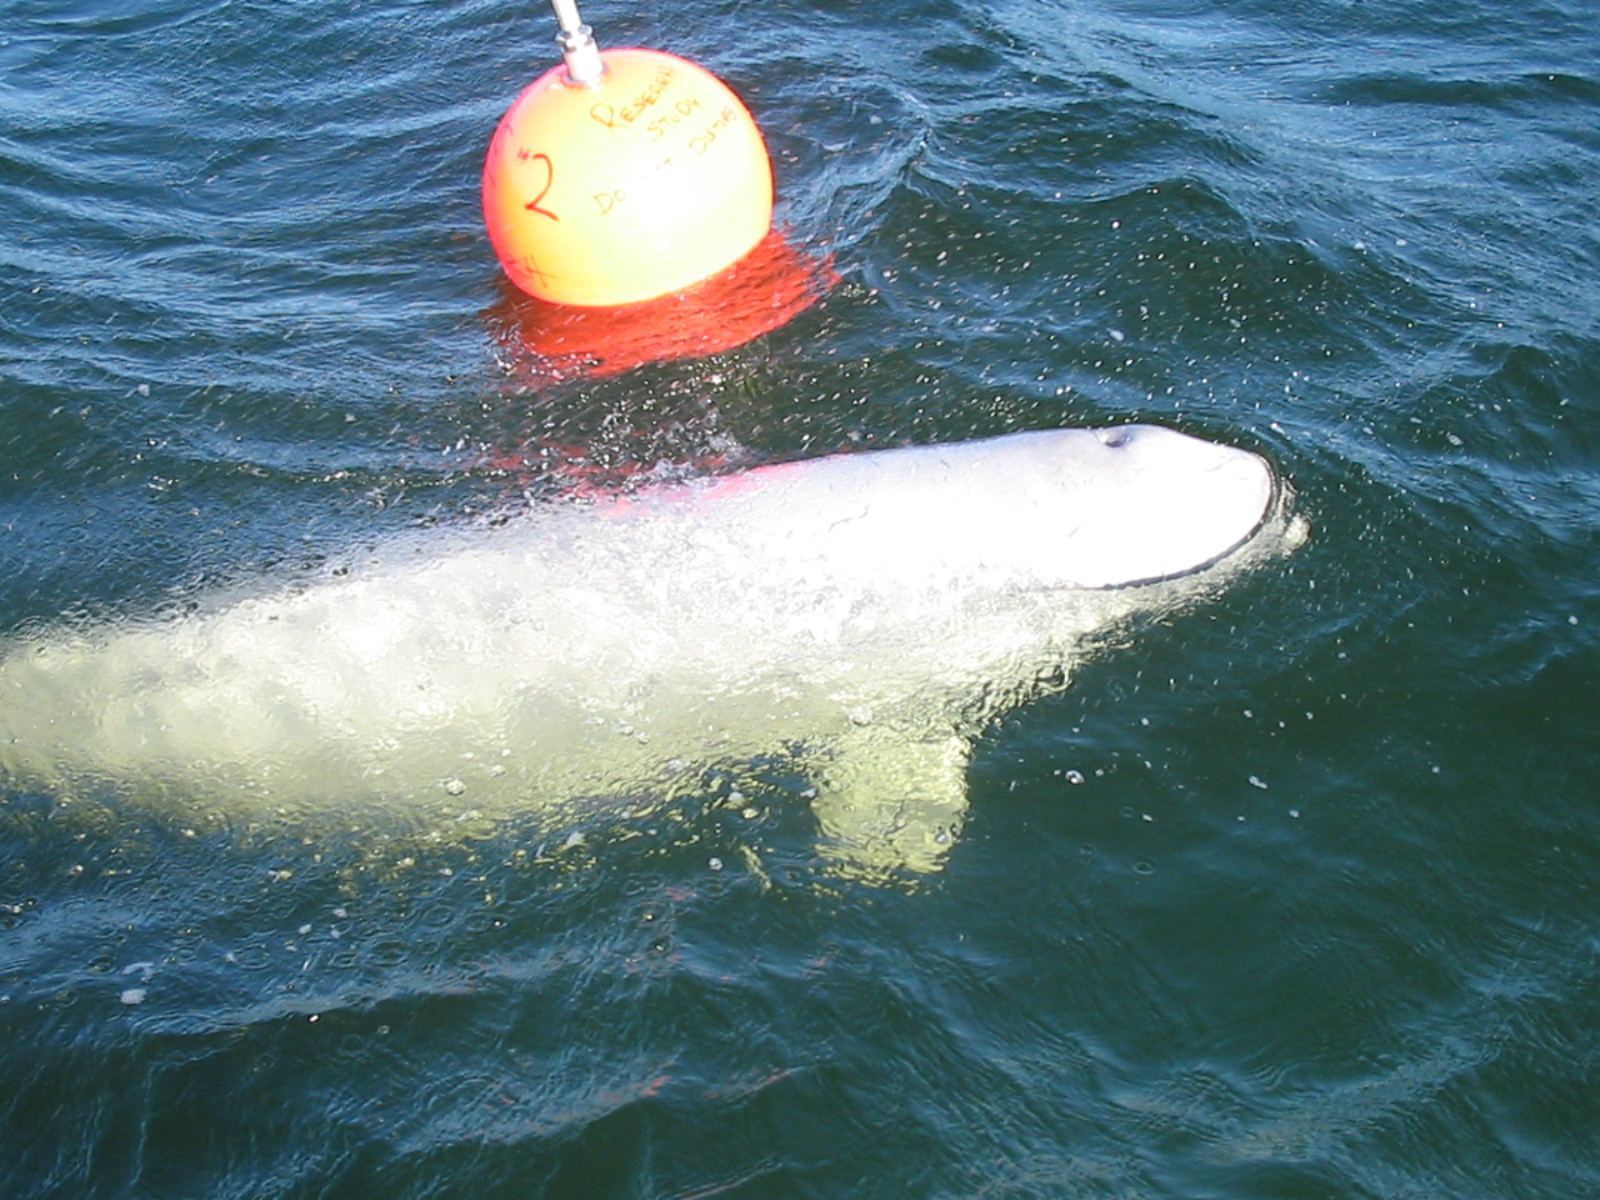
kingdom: Animalia
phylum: Chordata
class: Mammalia
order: Cetacea
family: Monodontidae
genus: Delphinapterus
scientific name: Delphinapterus leucas
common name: Beluga
